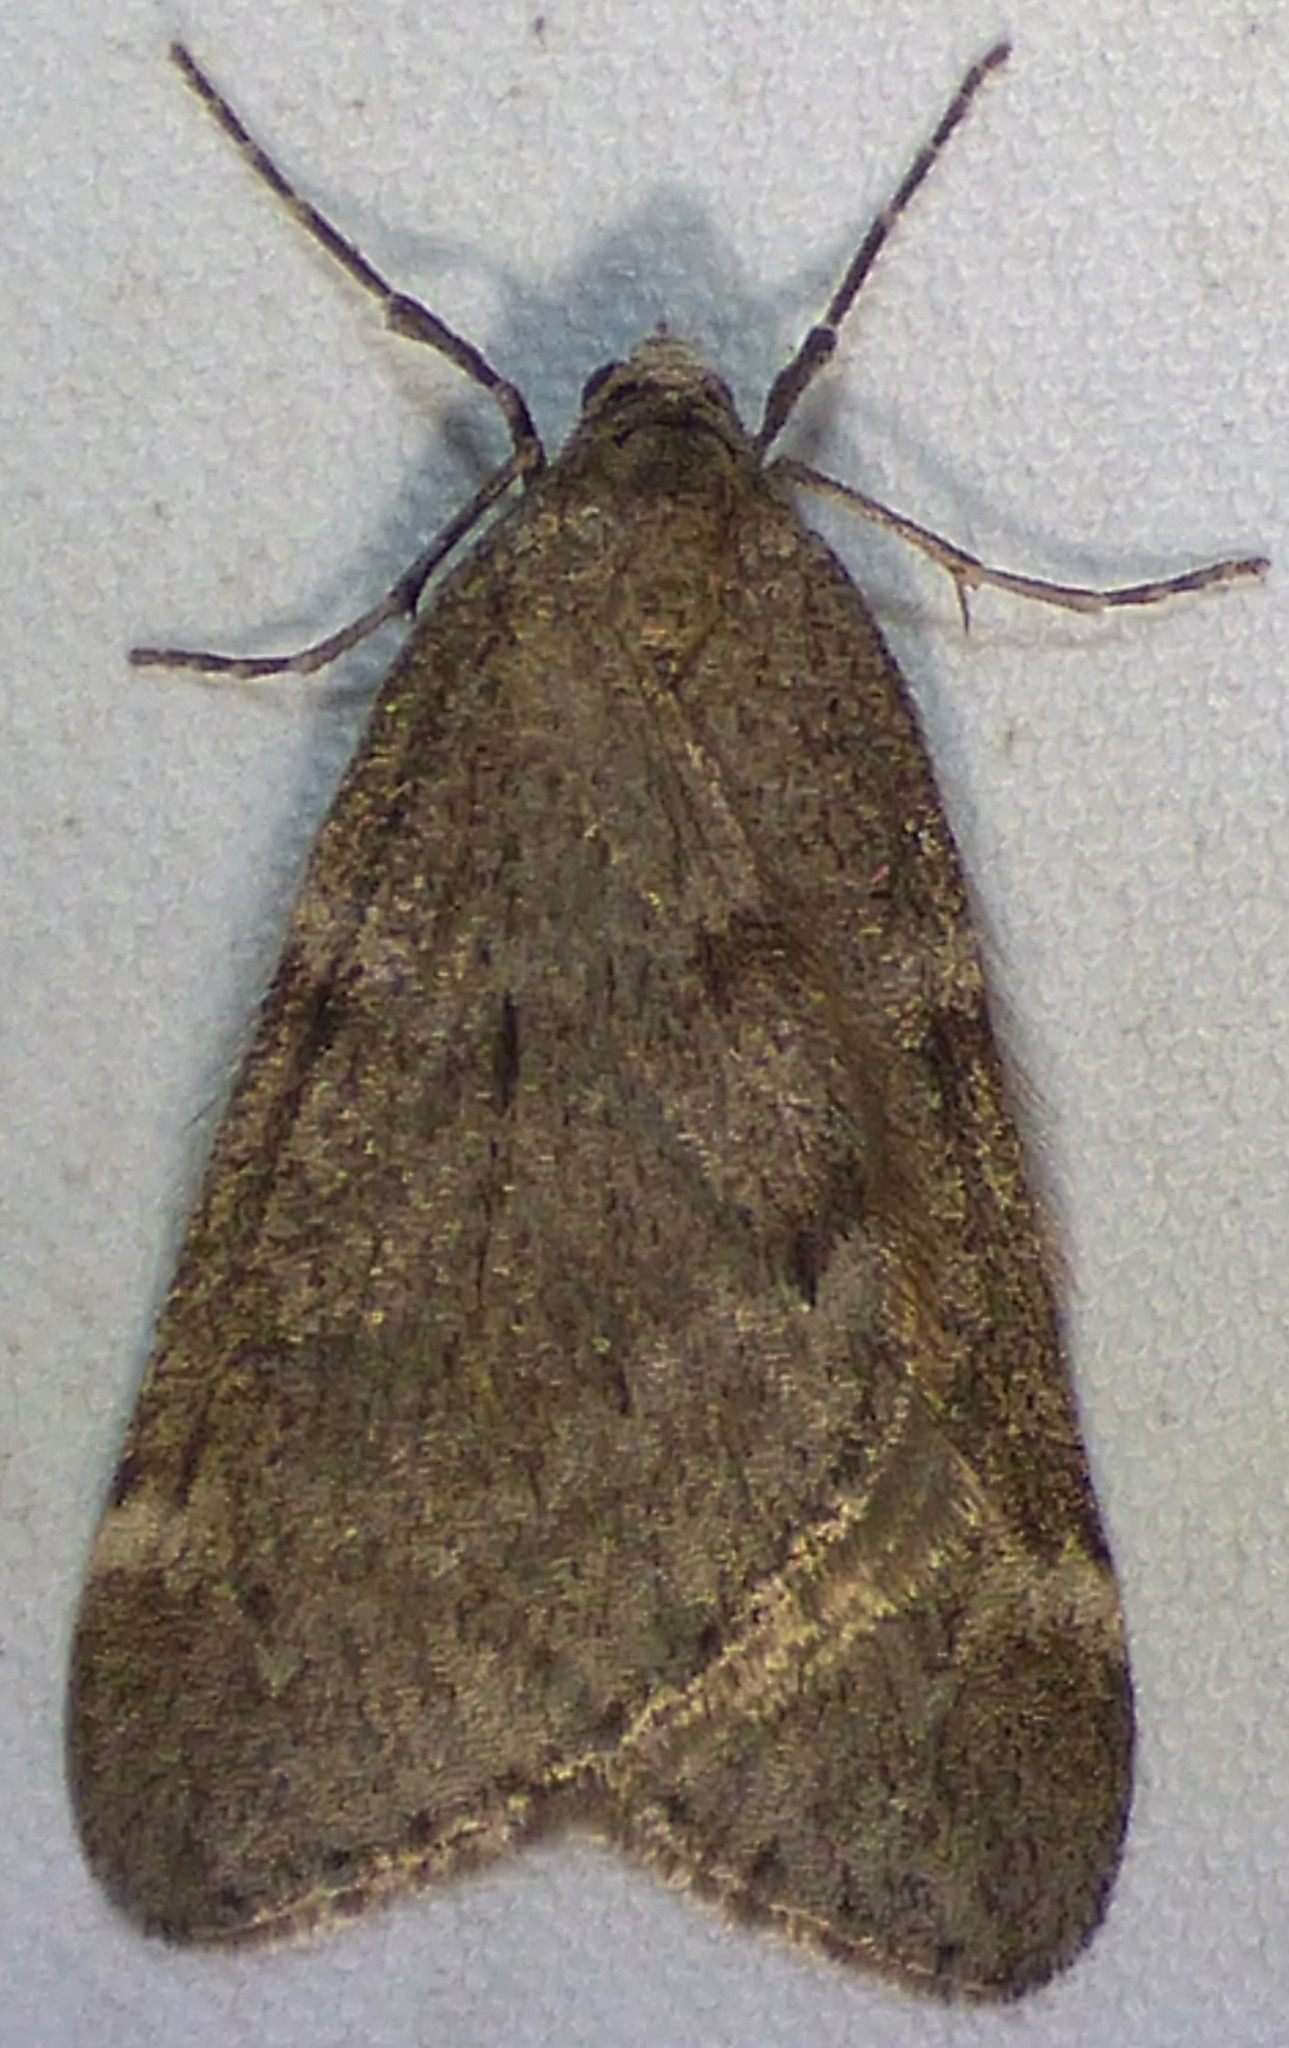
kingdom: Animalia
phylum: Arthropoda
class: Insecta
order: Lepidoptera
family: Geometridae
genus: Alsophila
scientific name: Alsophila pometaria
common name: Fall cankerworm
